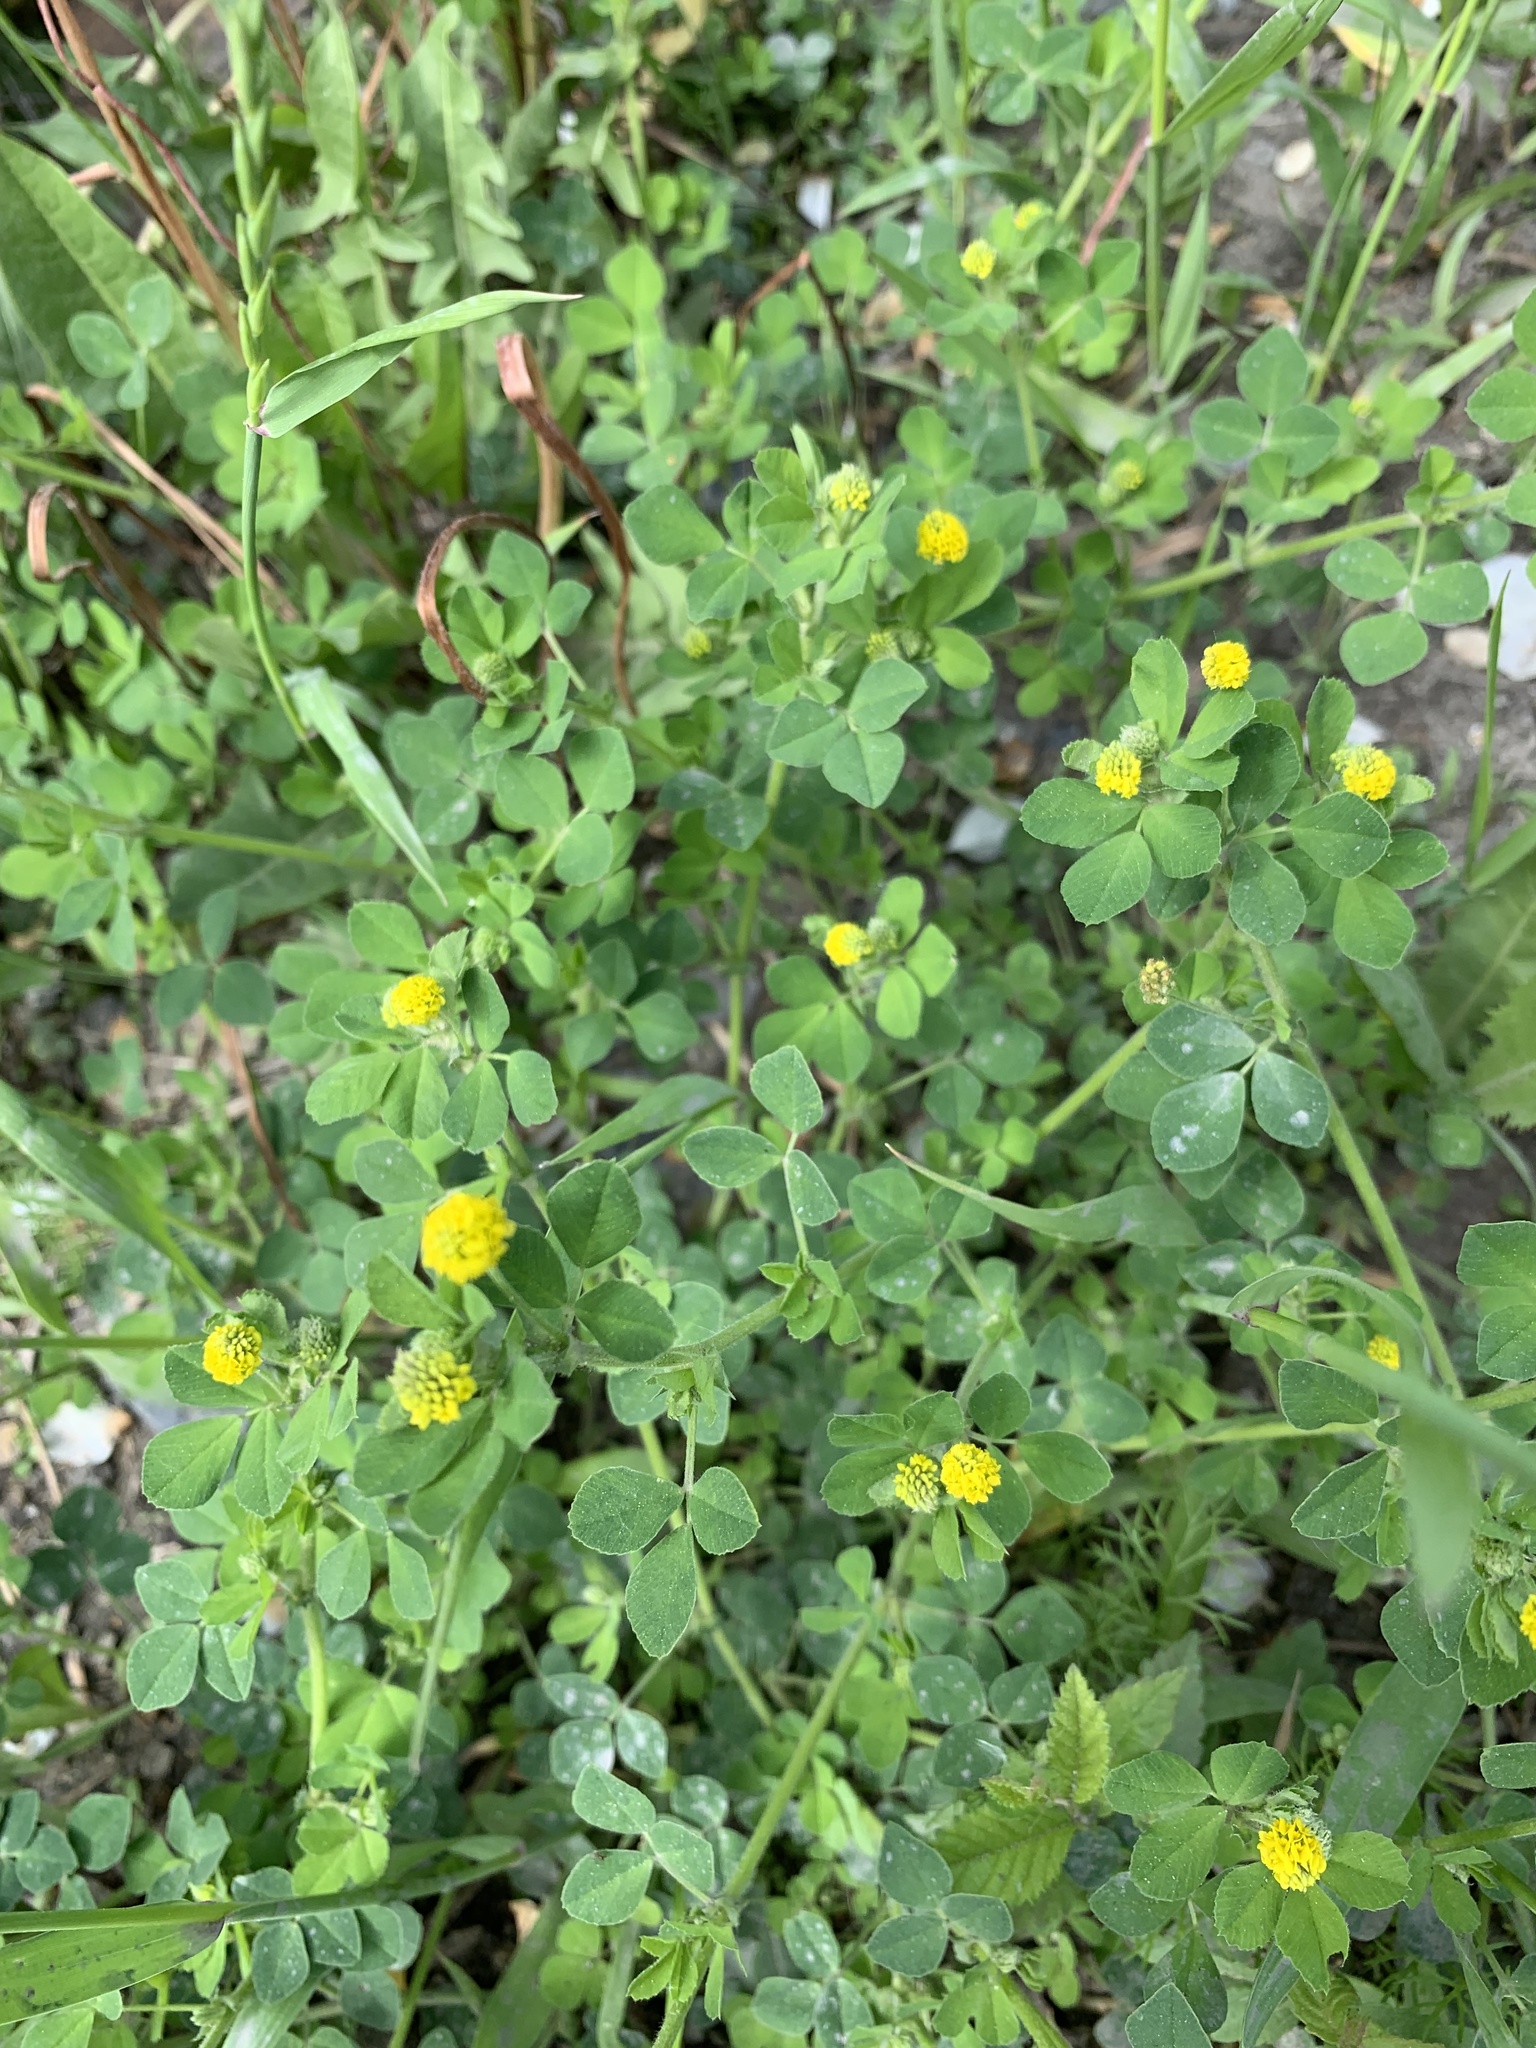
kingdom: Plantae
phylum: Tracheophyta
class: Magnoliopsida
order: Fabales
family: Fabaceae
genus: Medicago
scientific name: Medicago lupulina
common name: Black medick
